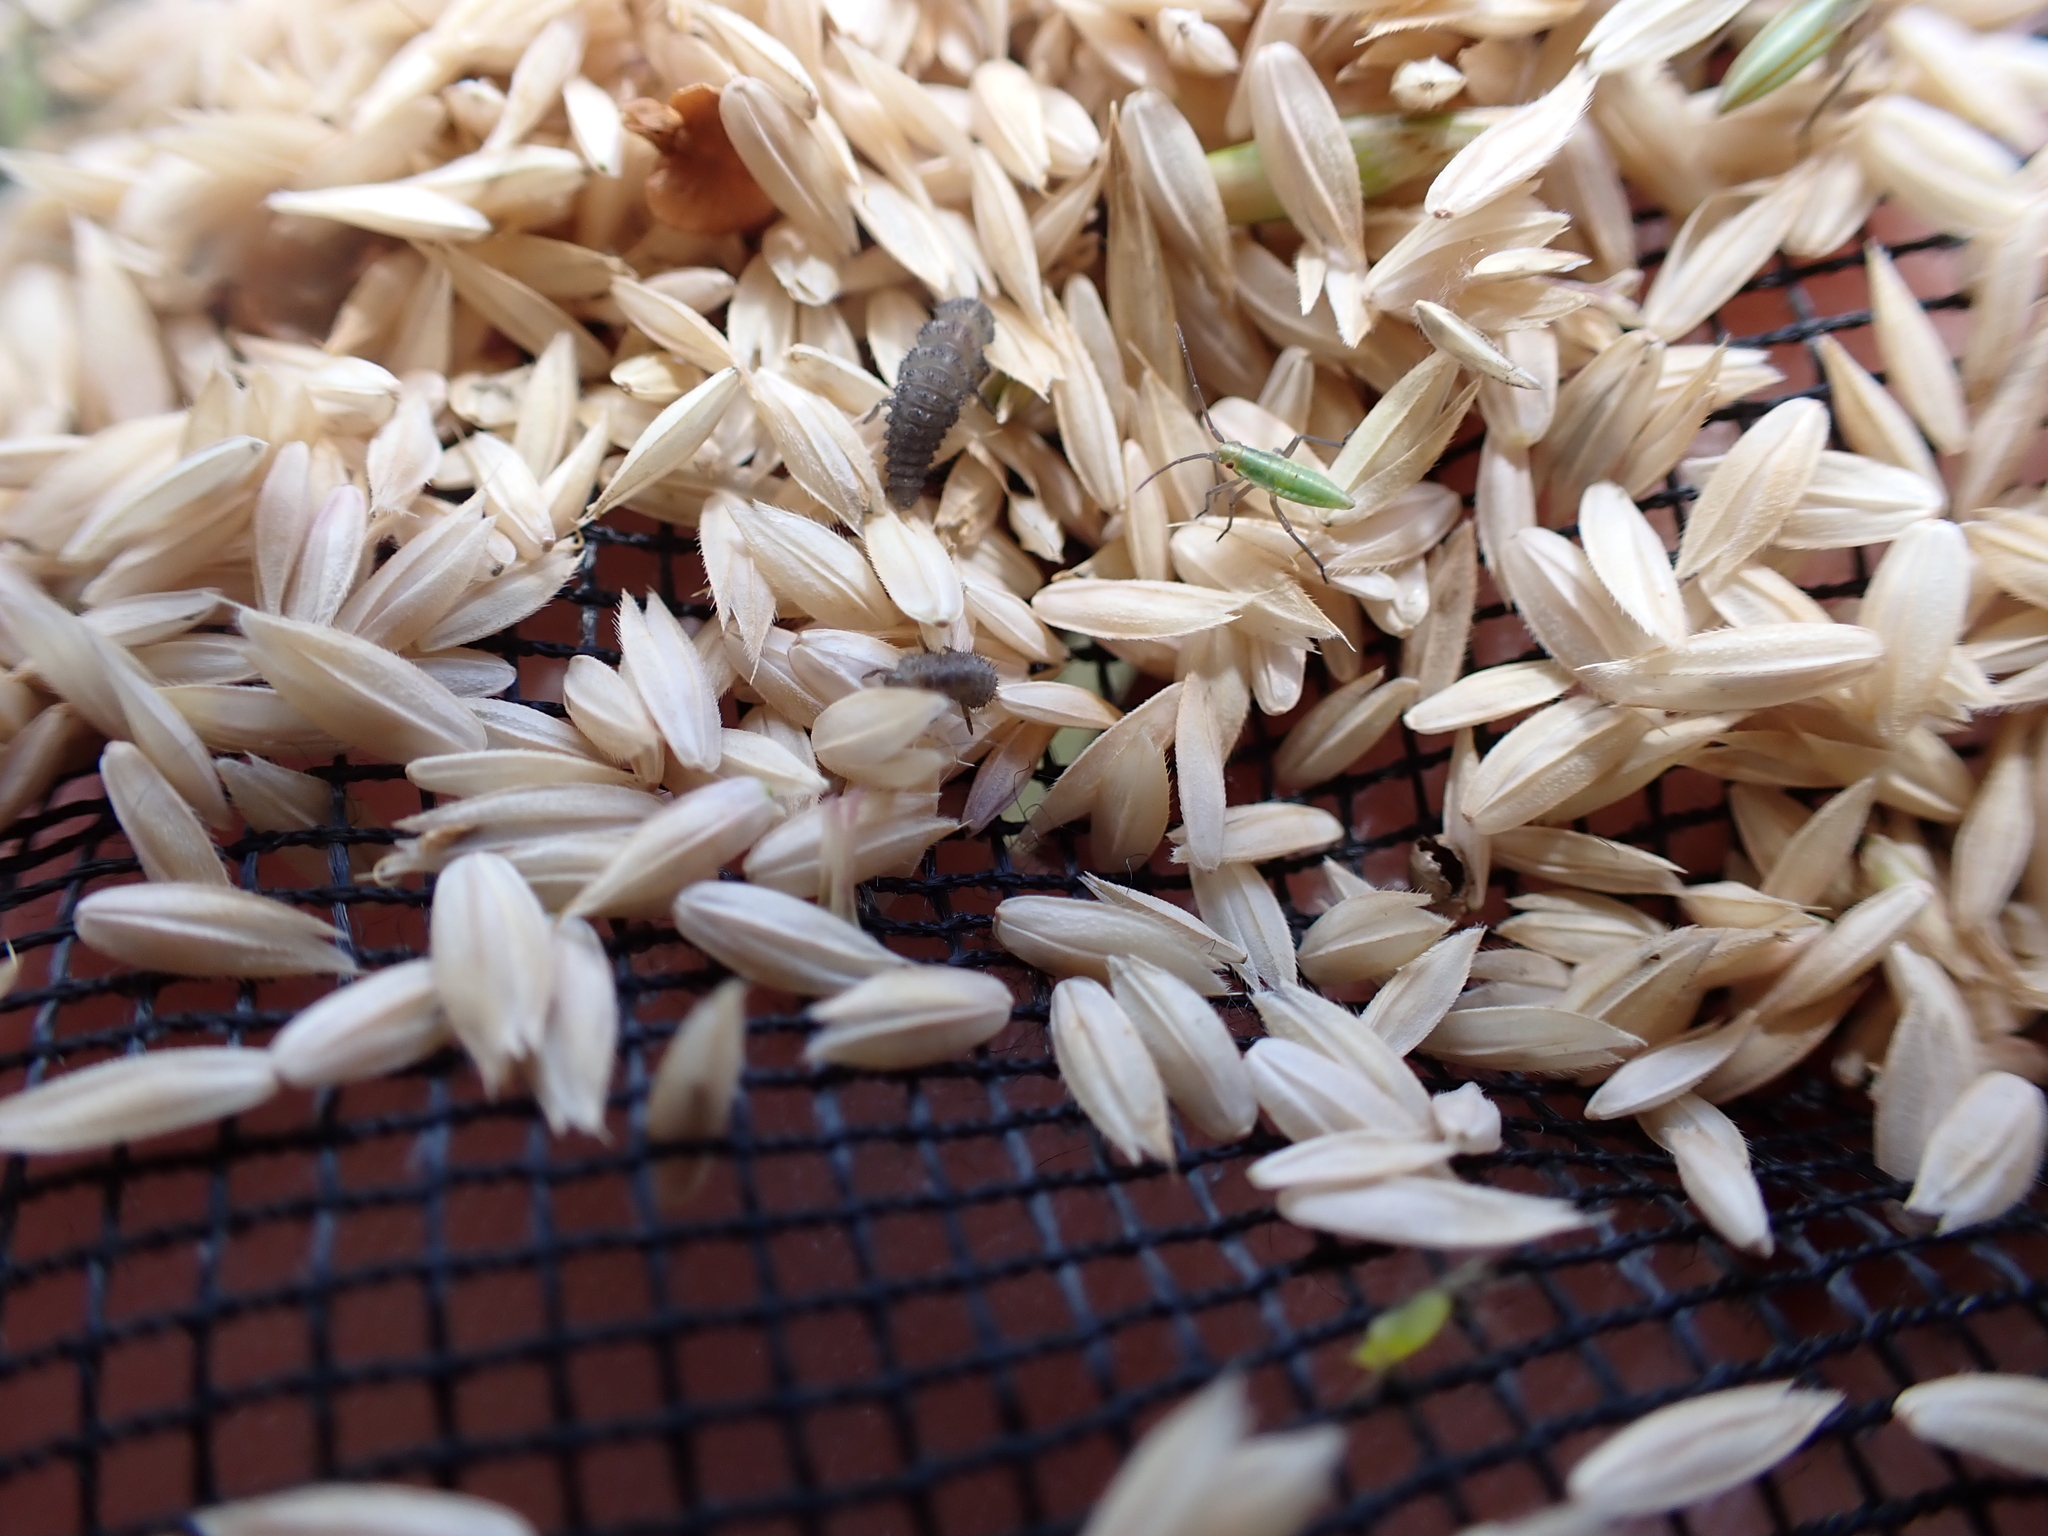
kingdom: Animalia
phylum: Arthropoda
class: Insecta
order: Coleoptera
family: Coccinellidae
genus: Tytthaspis
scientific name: Tytthaspis sedecimpunctata
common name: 16-spot ladybird
